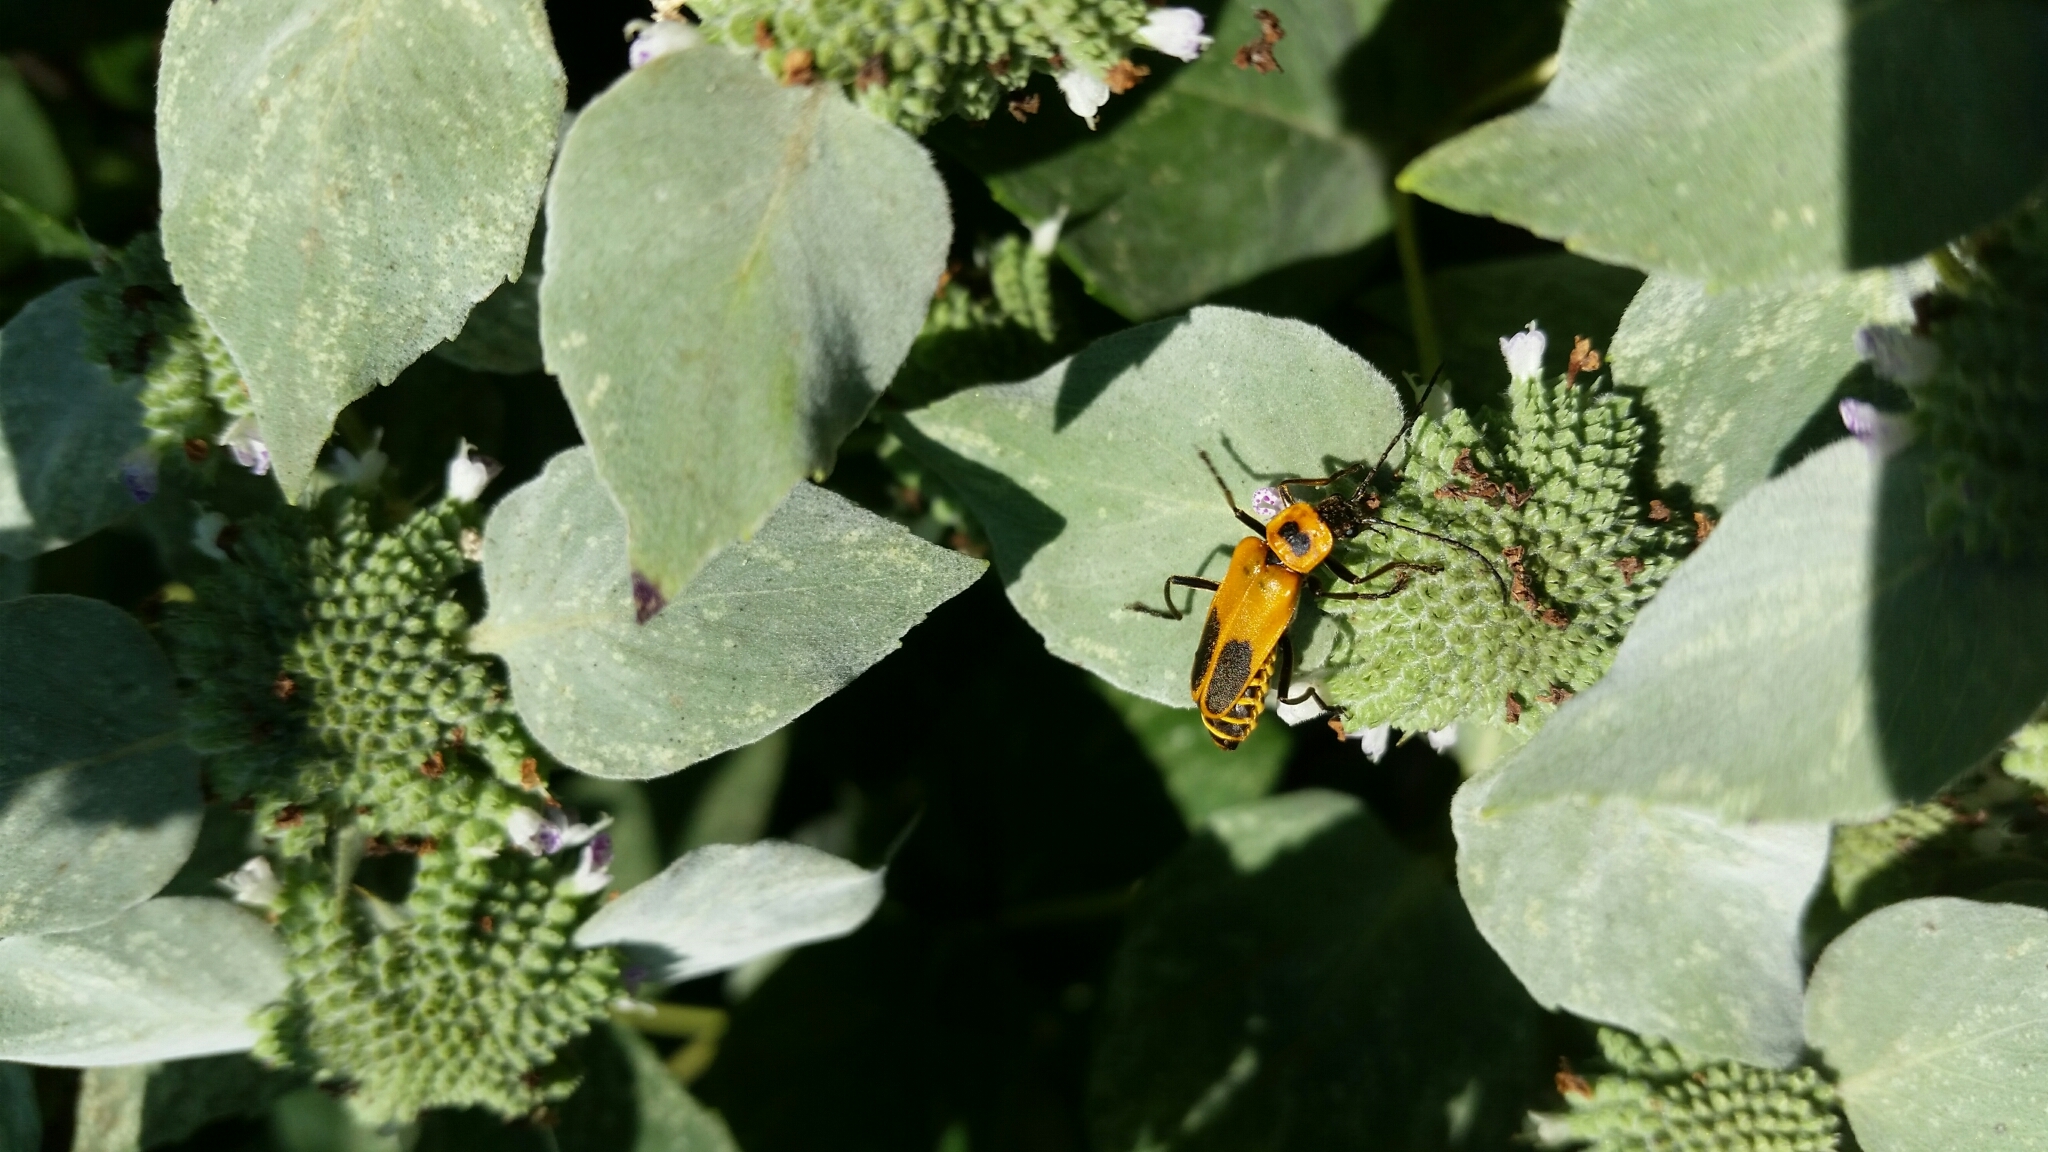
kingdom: Animalia
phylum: Arthropoda
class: Insecta
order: Coleoptera
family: Cantharidae
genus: Chauliognathus
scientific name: Chauliognathus pensylvanicus
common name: Goldenrod soldier beetle
